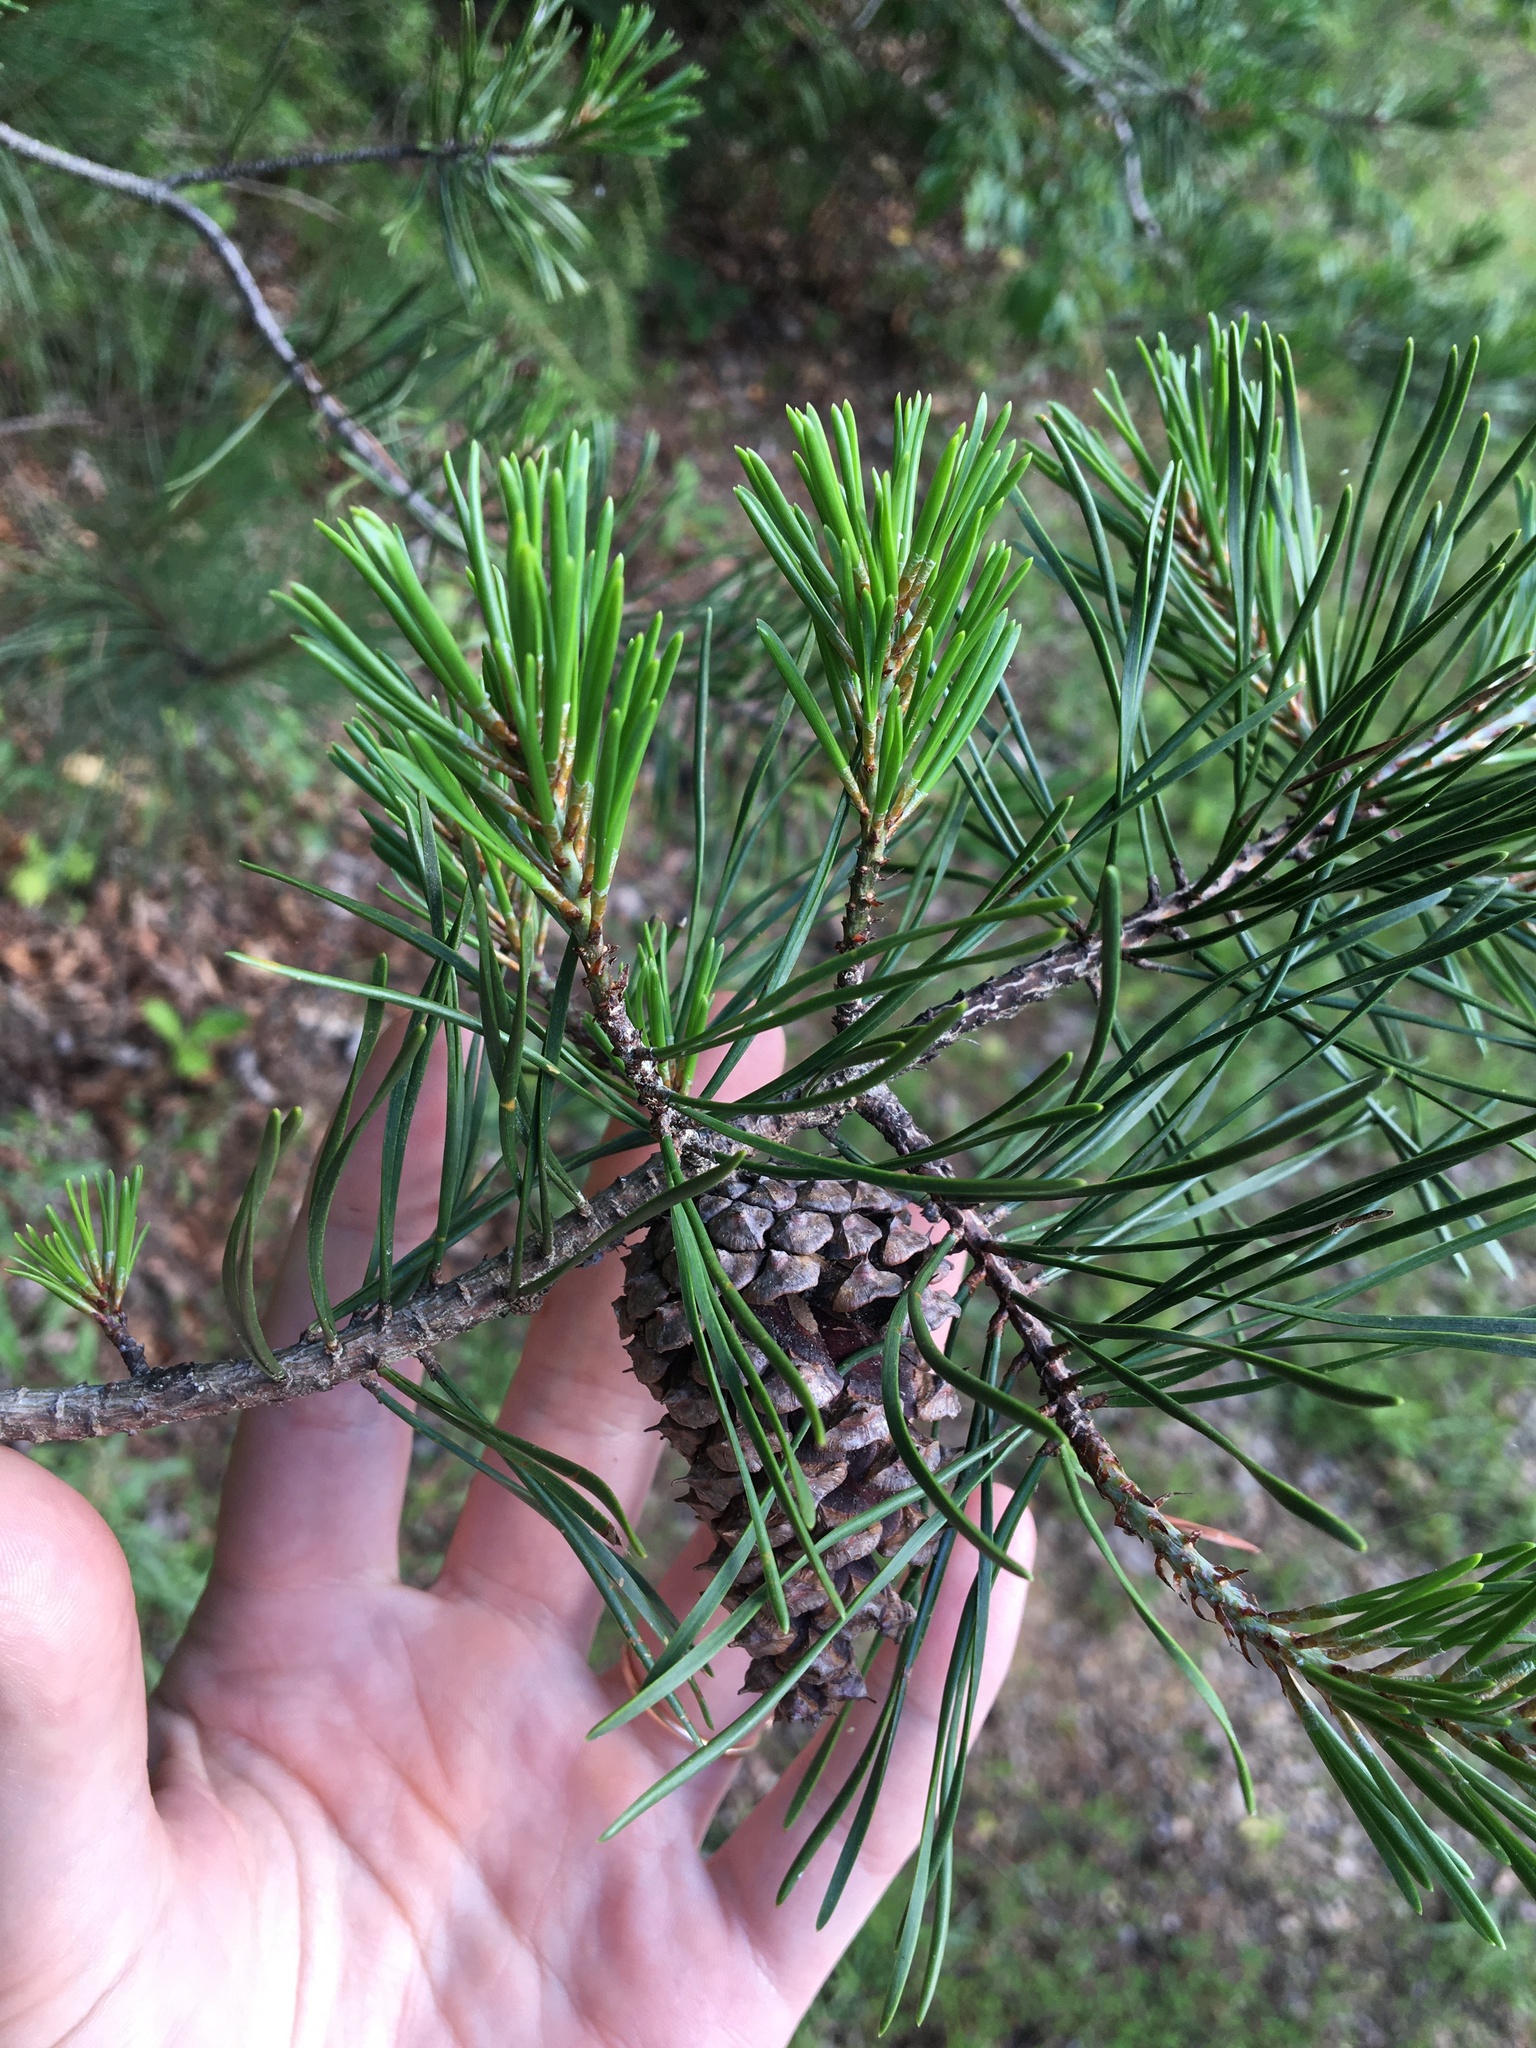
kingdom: Plantae
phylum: Tracheophyta
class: Pinopsida
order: Pinales
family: Pinaceae
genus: Pinus
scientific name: Pinus virginiana
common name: Scrub pine
